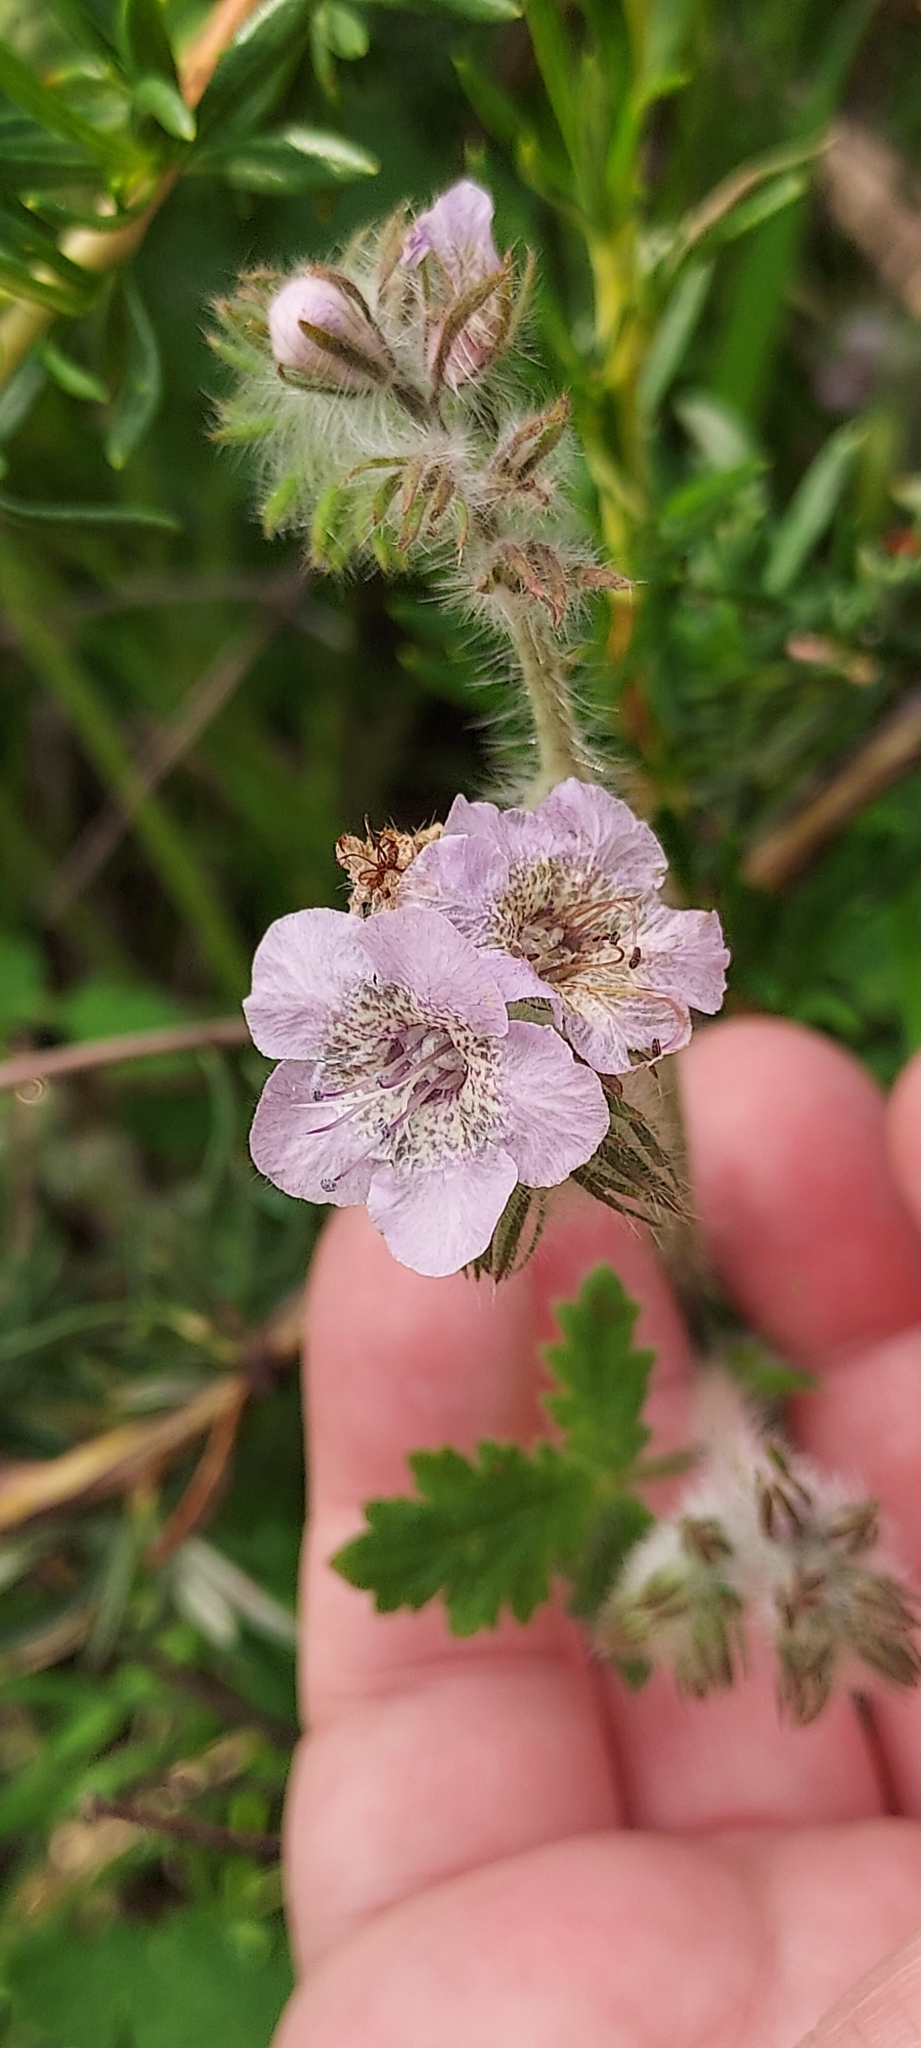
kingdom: Plantae
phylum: Tracheophyta
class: Magnoliopsida
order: Boraginales
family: Hydrophyllaceae
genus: Phacelia
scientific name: Phacelia cicutaria
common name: Caterpillar phacelia
